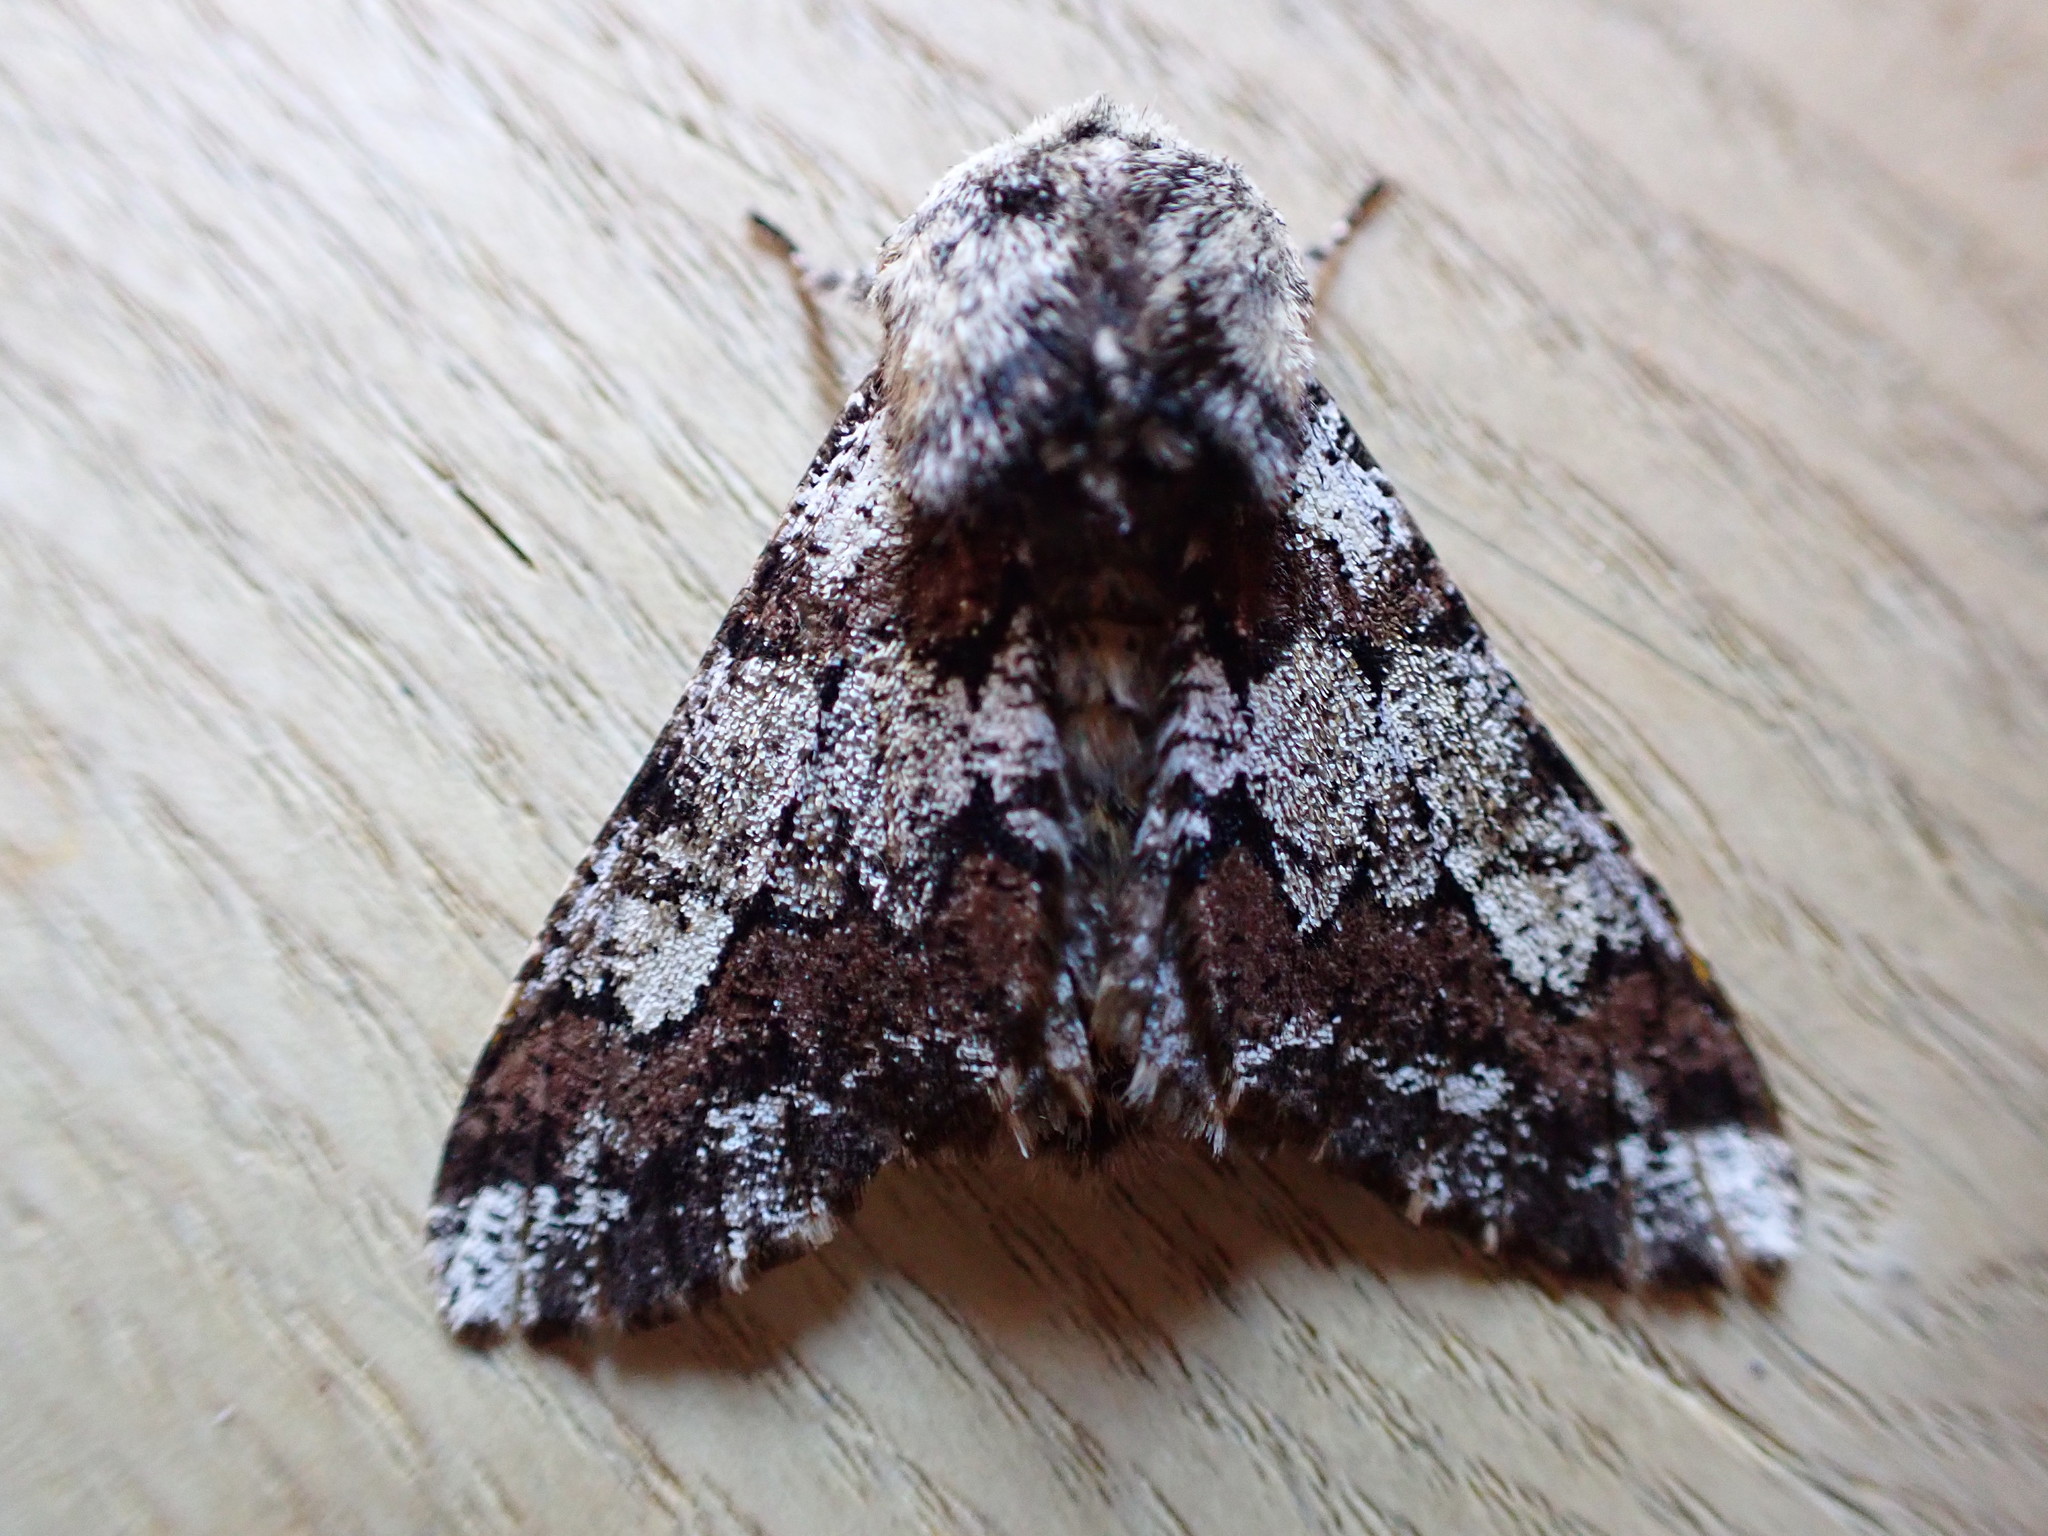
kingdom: Animalia
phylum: Arthropoda
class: Insecta
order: Lepidoptera
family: Geometridae
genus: Biston
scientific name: Biston strataria
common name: Oak beauty
